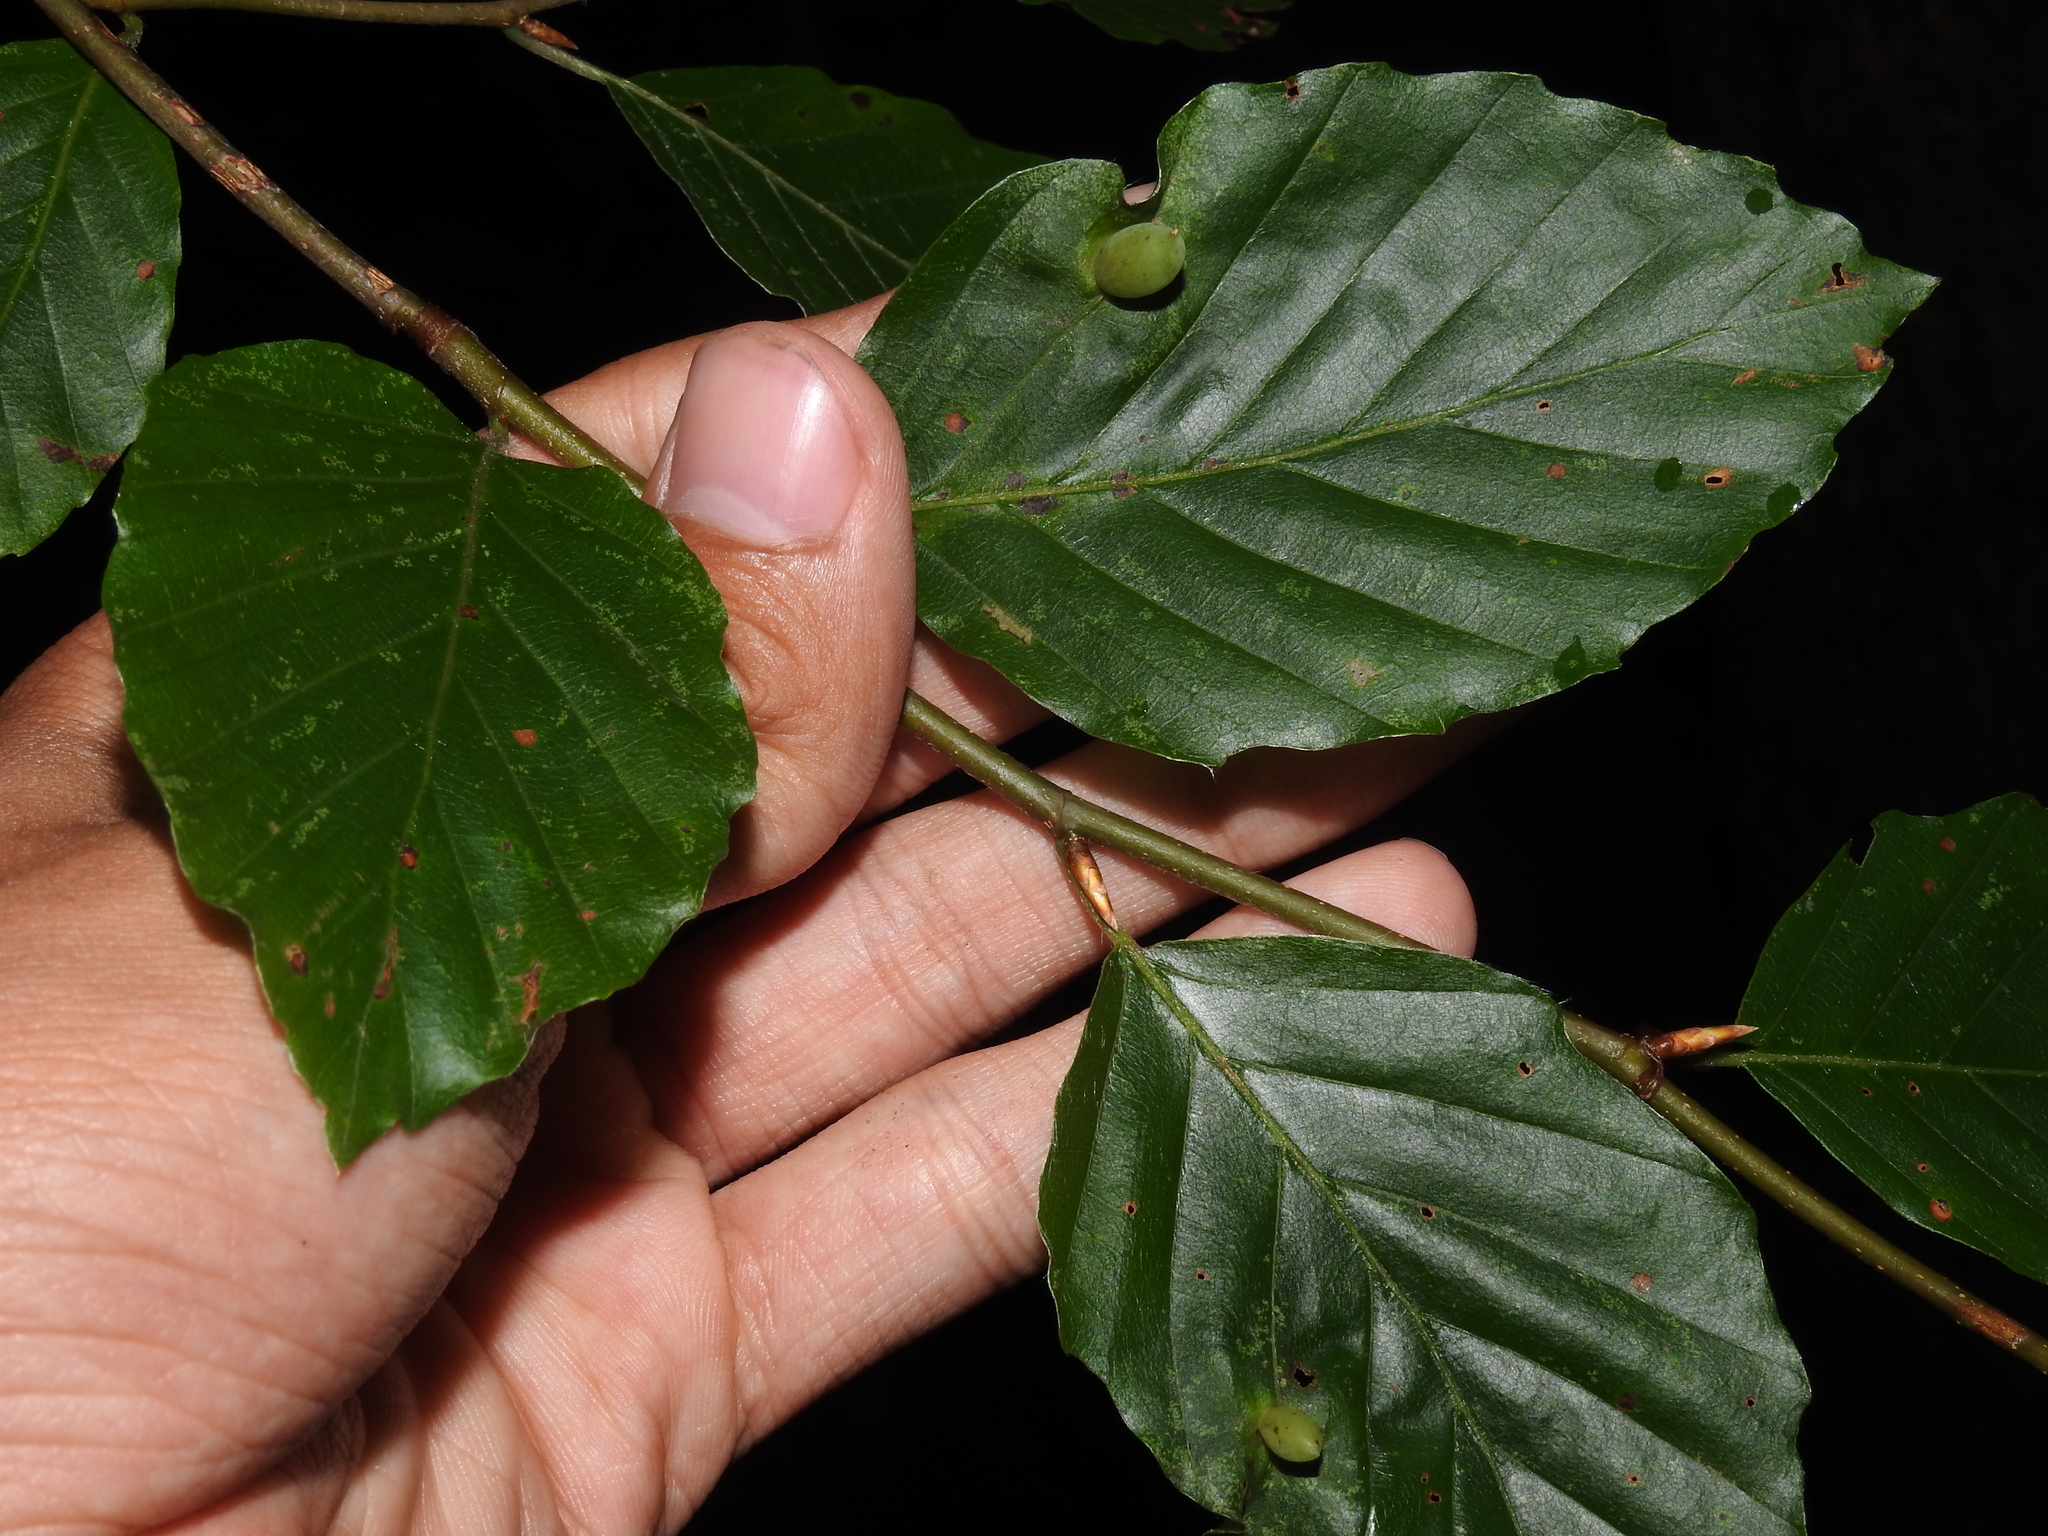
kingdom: Animalia
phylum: Arthropoda
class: Insecta
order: Diptera
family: Cecidomyiidae
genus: Mikiola
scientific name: Mikiola fagi
